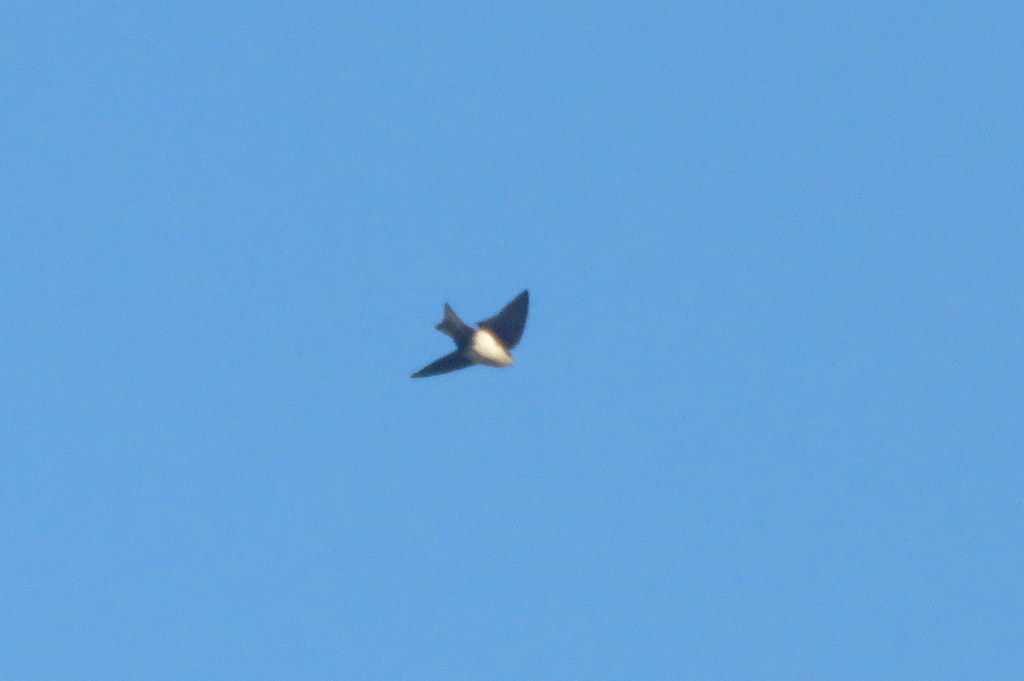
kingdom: Animalia
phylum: Chordata
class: Aves
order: Passeriformes
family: Hirundinidae
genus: Notiochelidon
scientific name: Notiochelidon cyanoleuca
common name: Blue-and-white swallow
